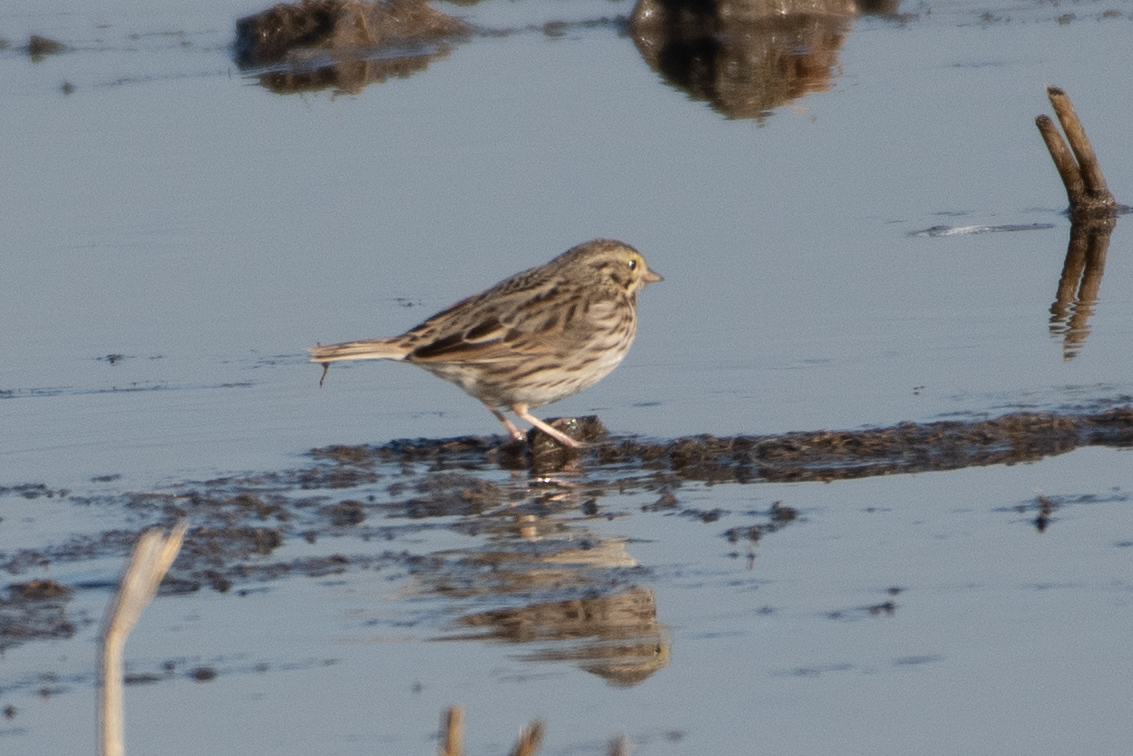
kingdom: Animalia
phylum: Chordata
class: Aves
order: Passeriformes
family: Passerellidae
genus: Passerculus
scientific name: Passerculus sandwichensis
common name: Savannah sparrow
